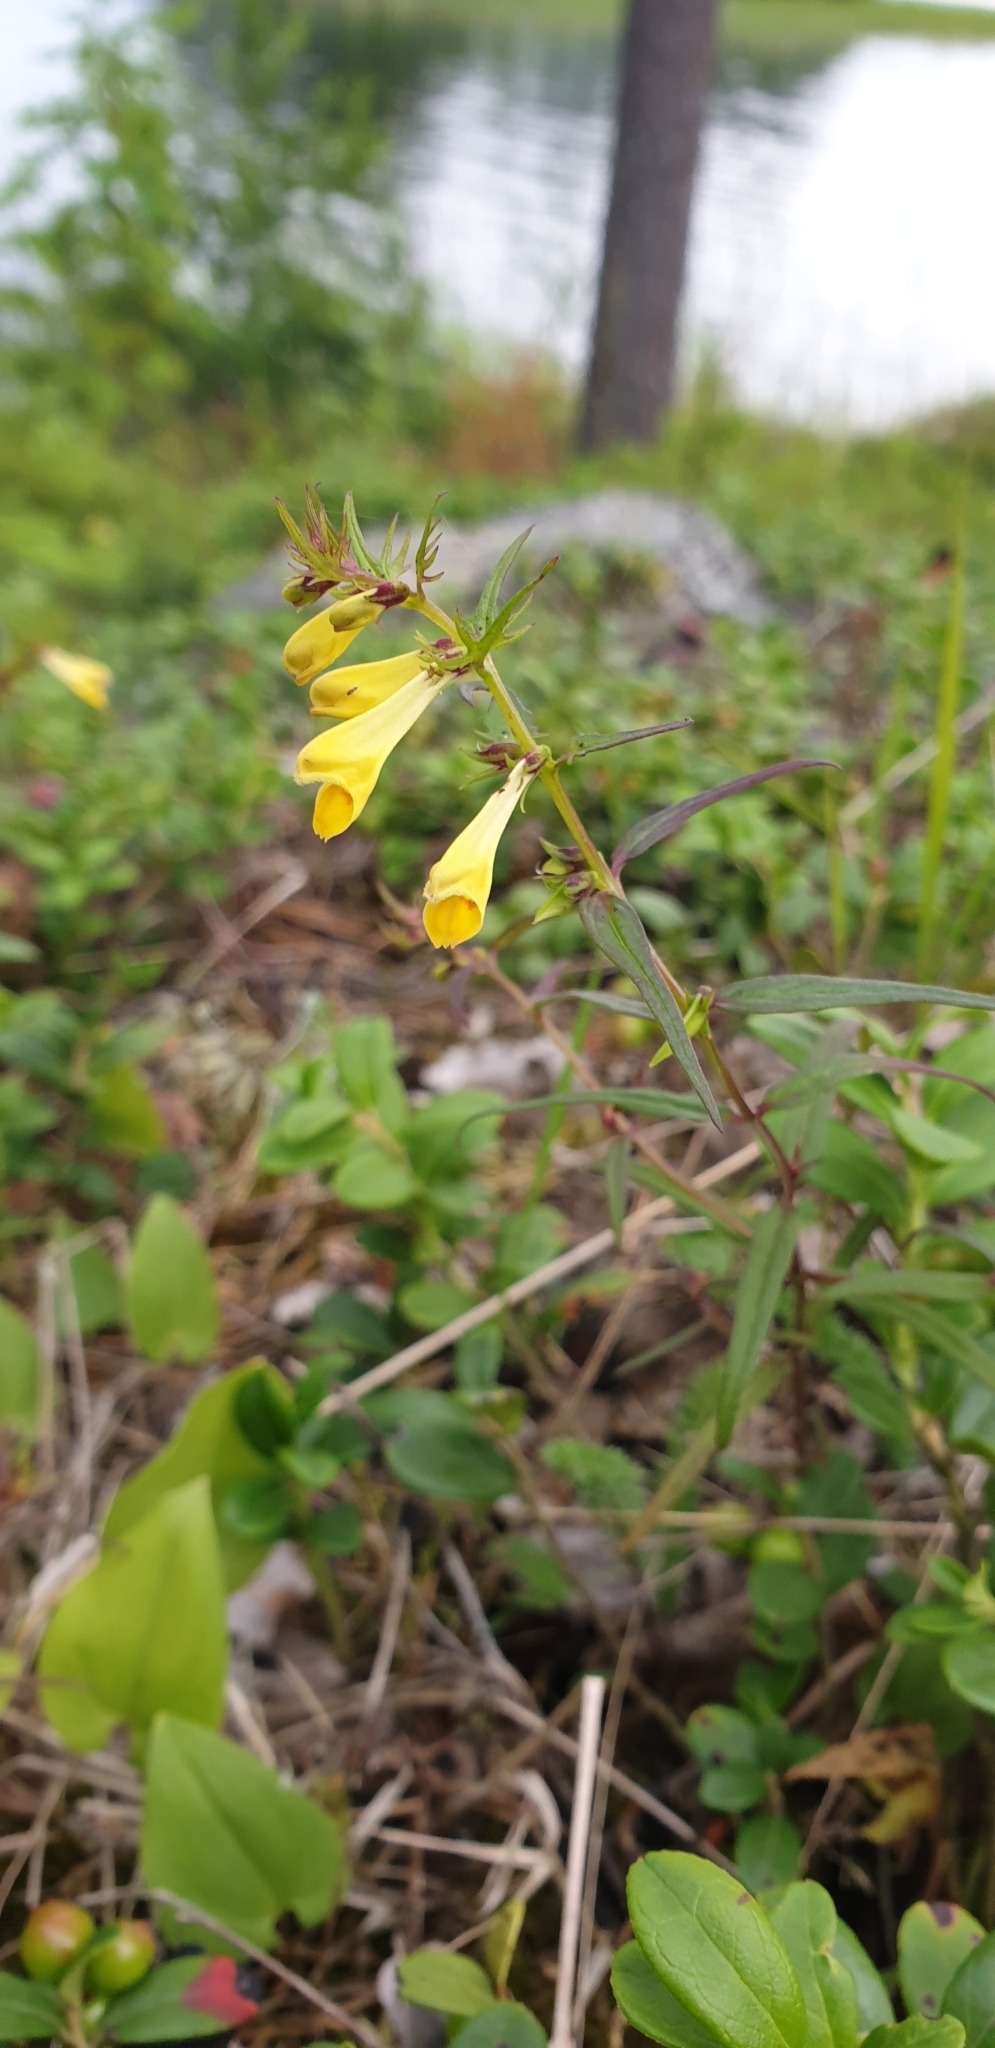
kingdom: Plantae
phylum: Tracheophyta
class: Magnoliopsida
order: Lamiales
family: Orobanchaceae
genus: Melampyrum
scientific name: Melampyrum pratense
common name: Common cow-wheat
